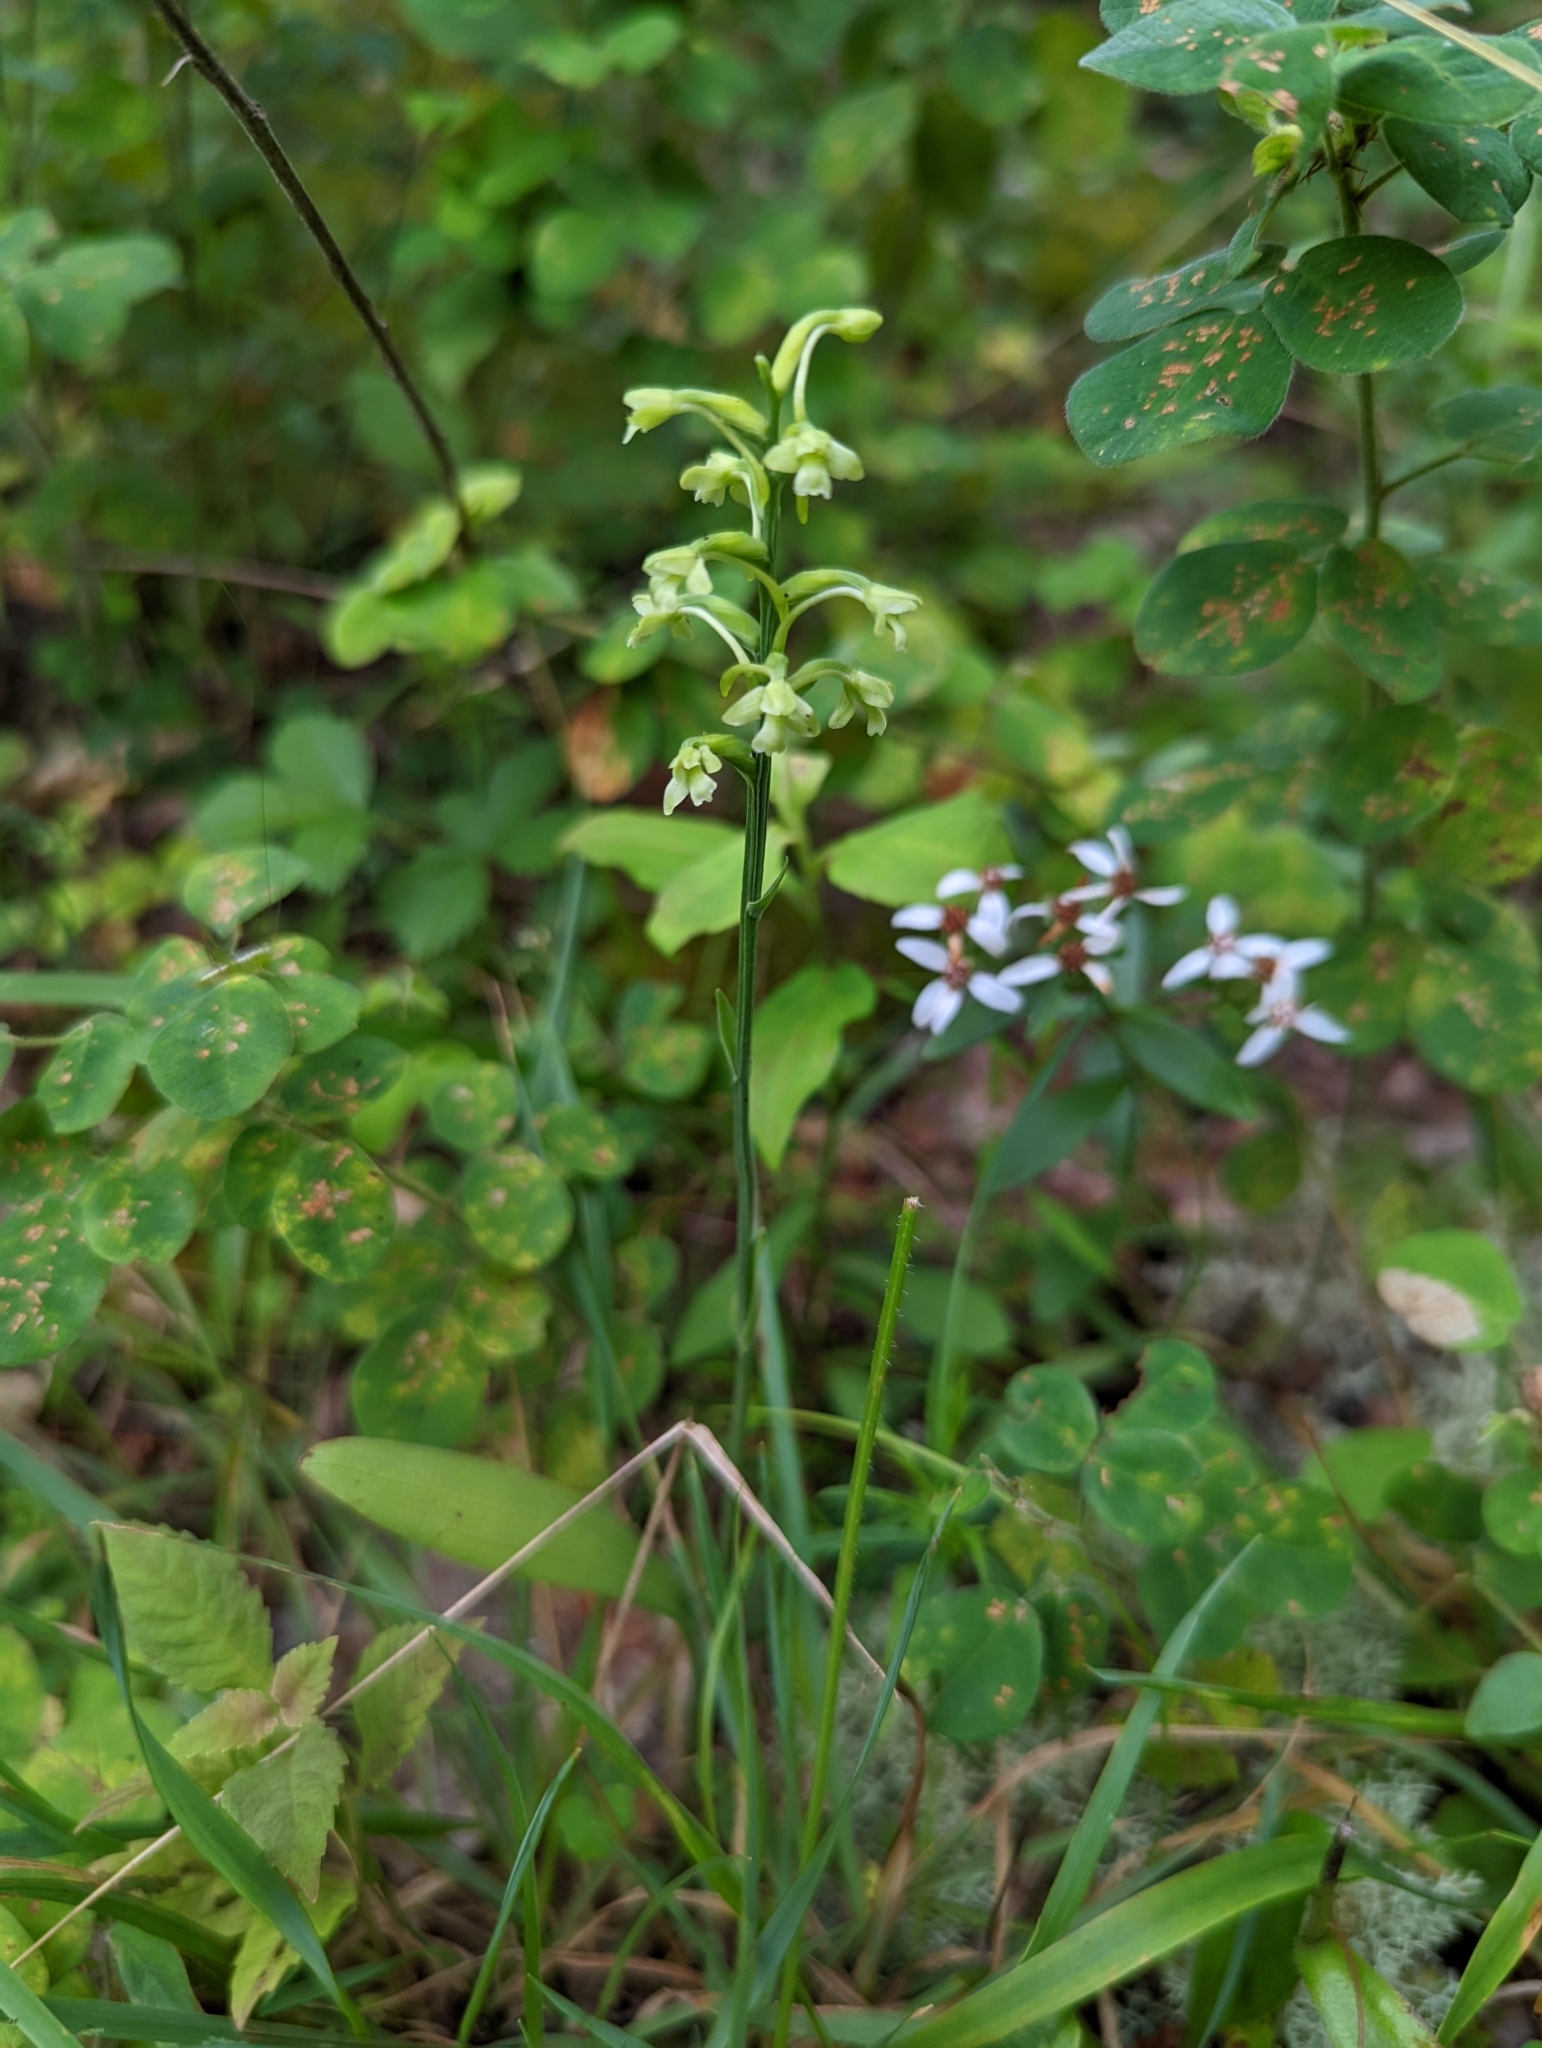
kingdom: Plantae
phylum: Tracheophyta
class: Liliopsida
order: Asparagales
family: Orchidaceae
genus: Platanthera
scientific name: Platanthera clavellata
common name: Club-spur orchid
